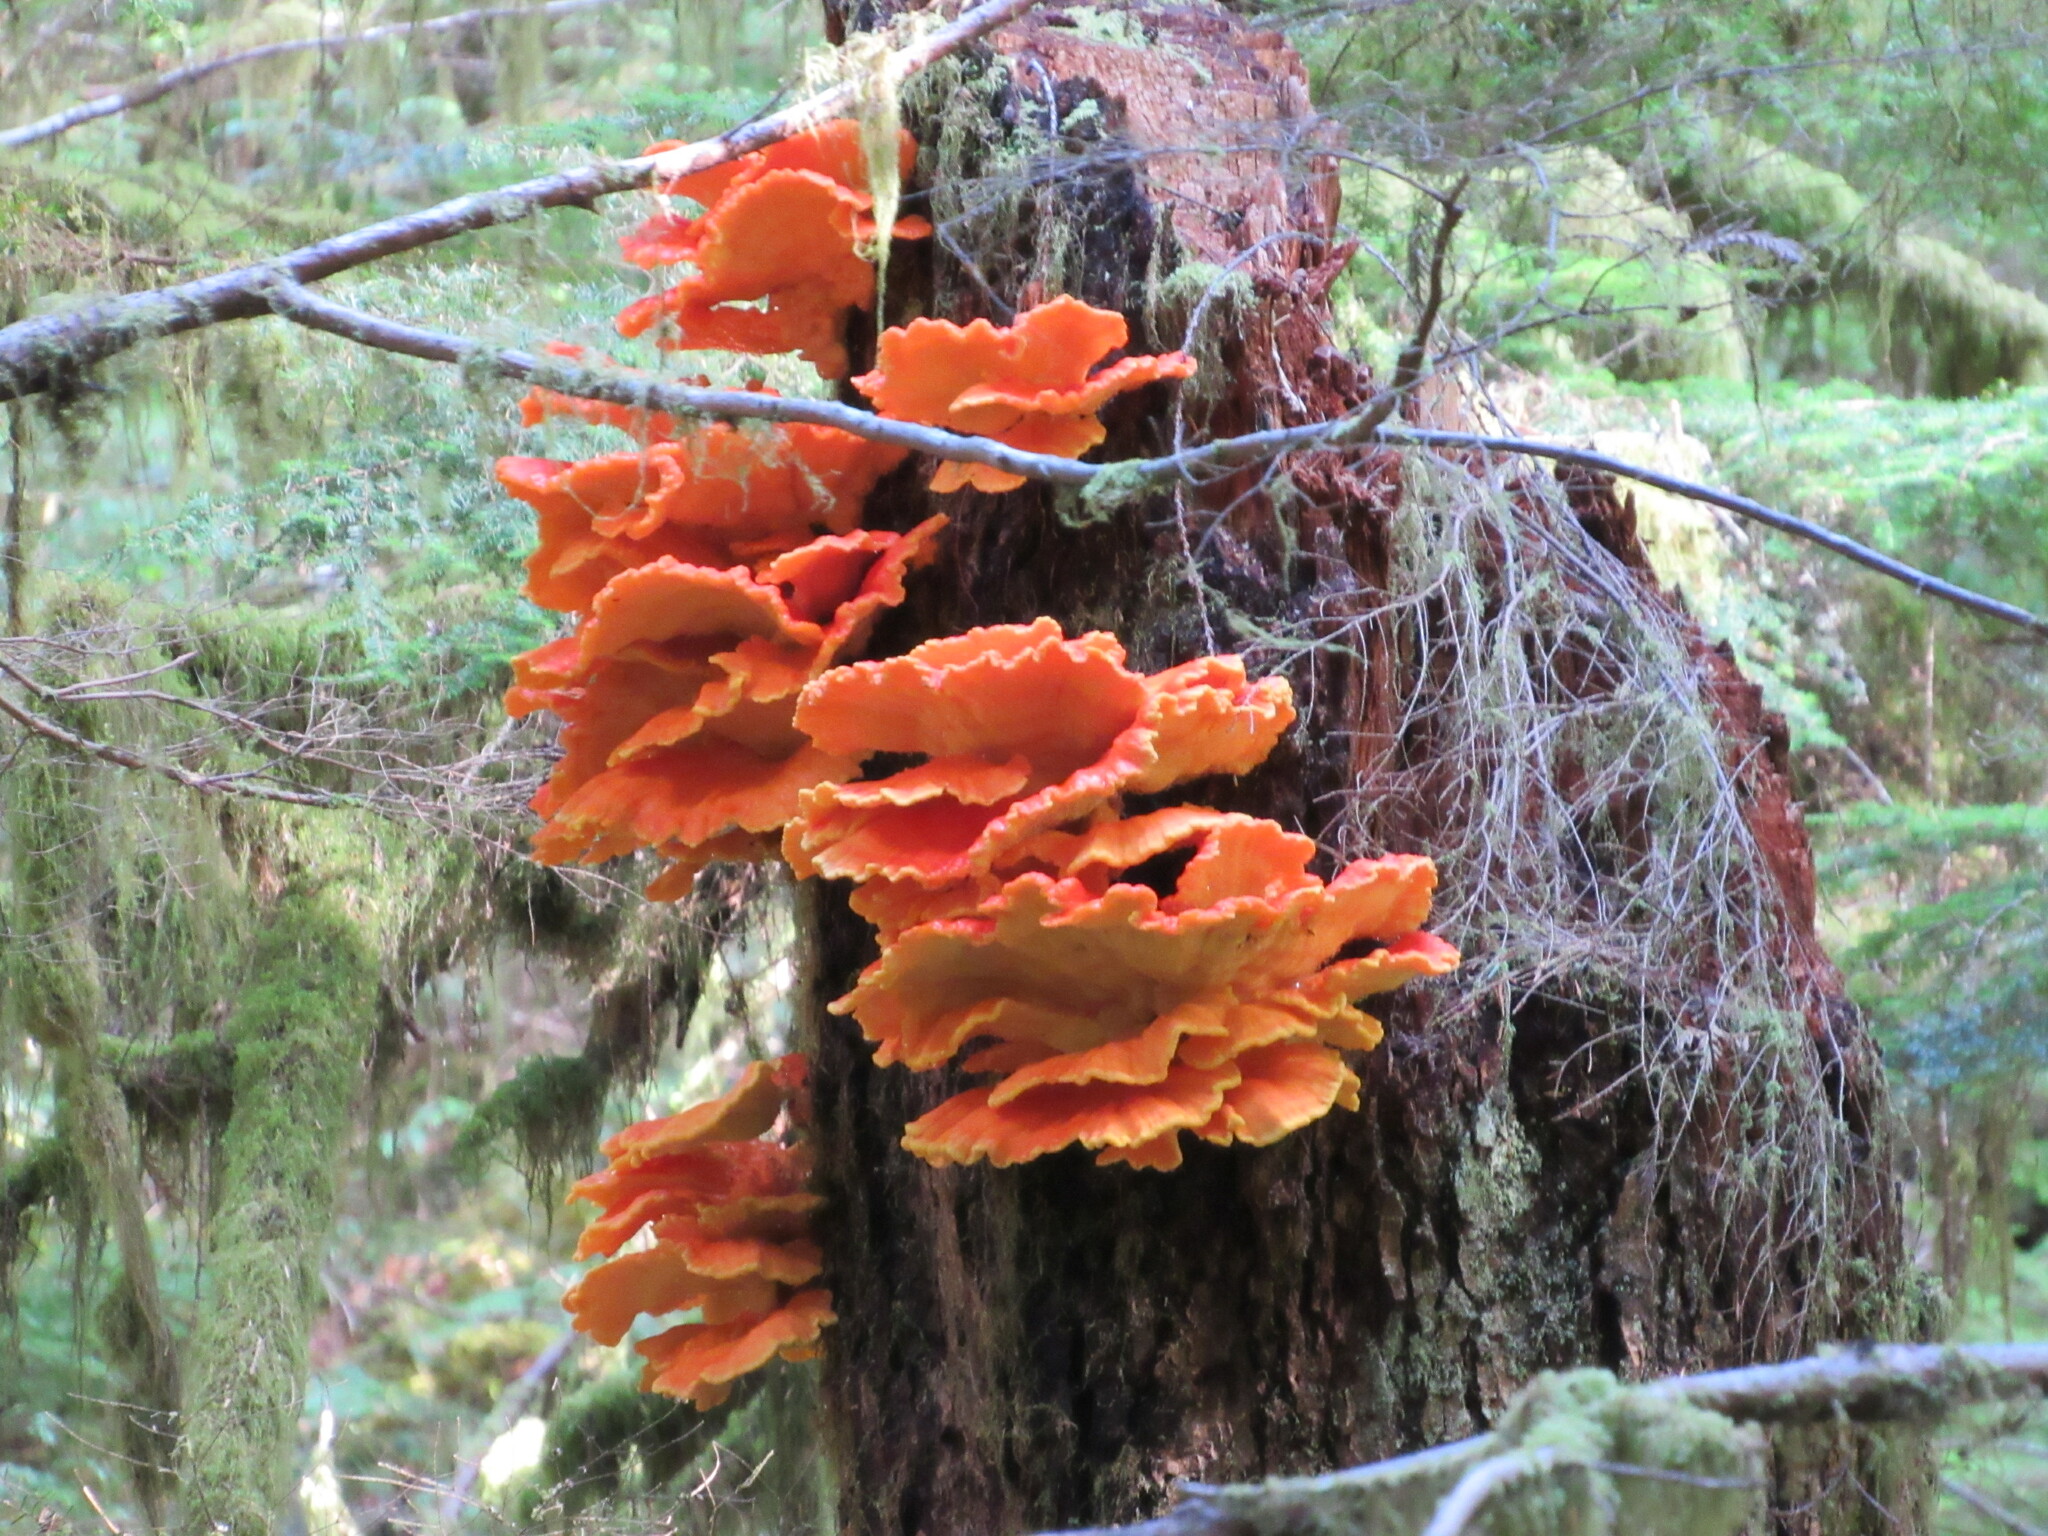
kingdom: Fungi
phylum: Basidiomycota
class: Agaricomycetes
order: Polyporales
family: Laetiporaceae
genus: Laetiporus
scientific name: Laetiporus conifericola
